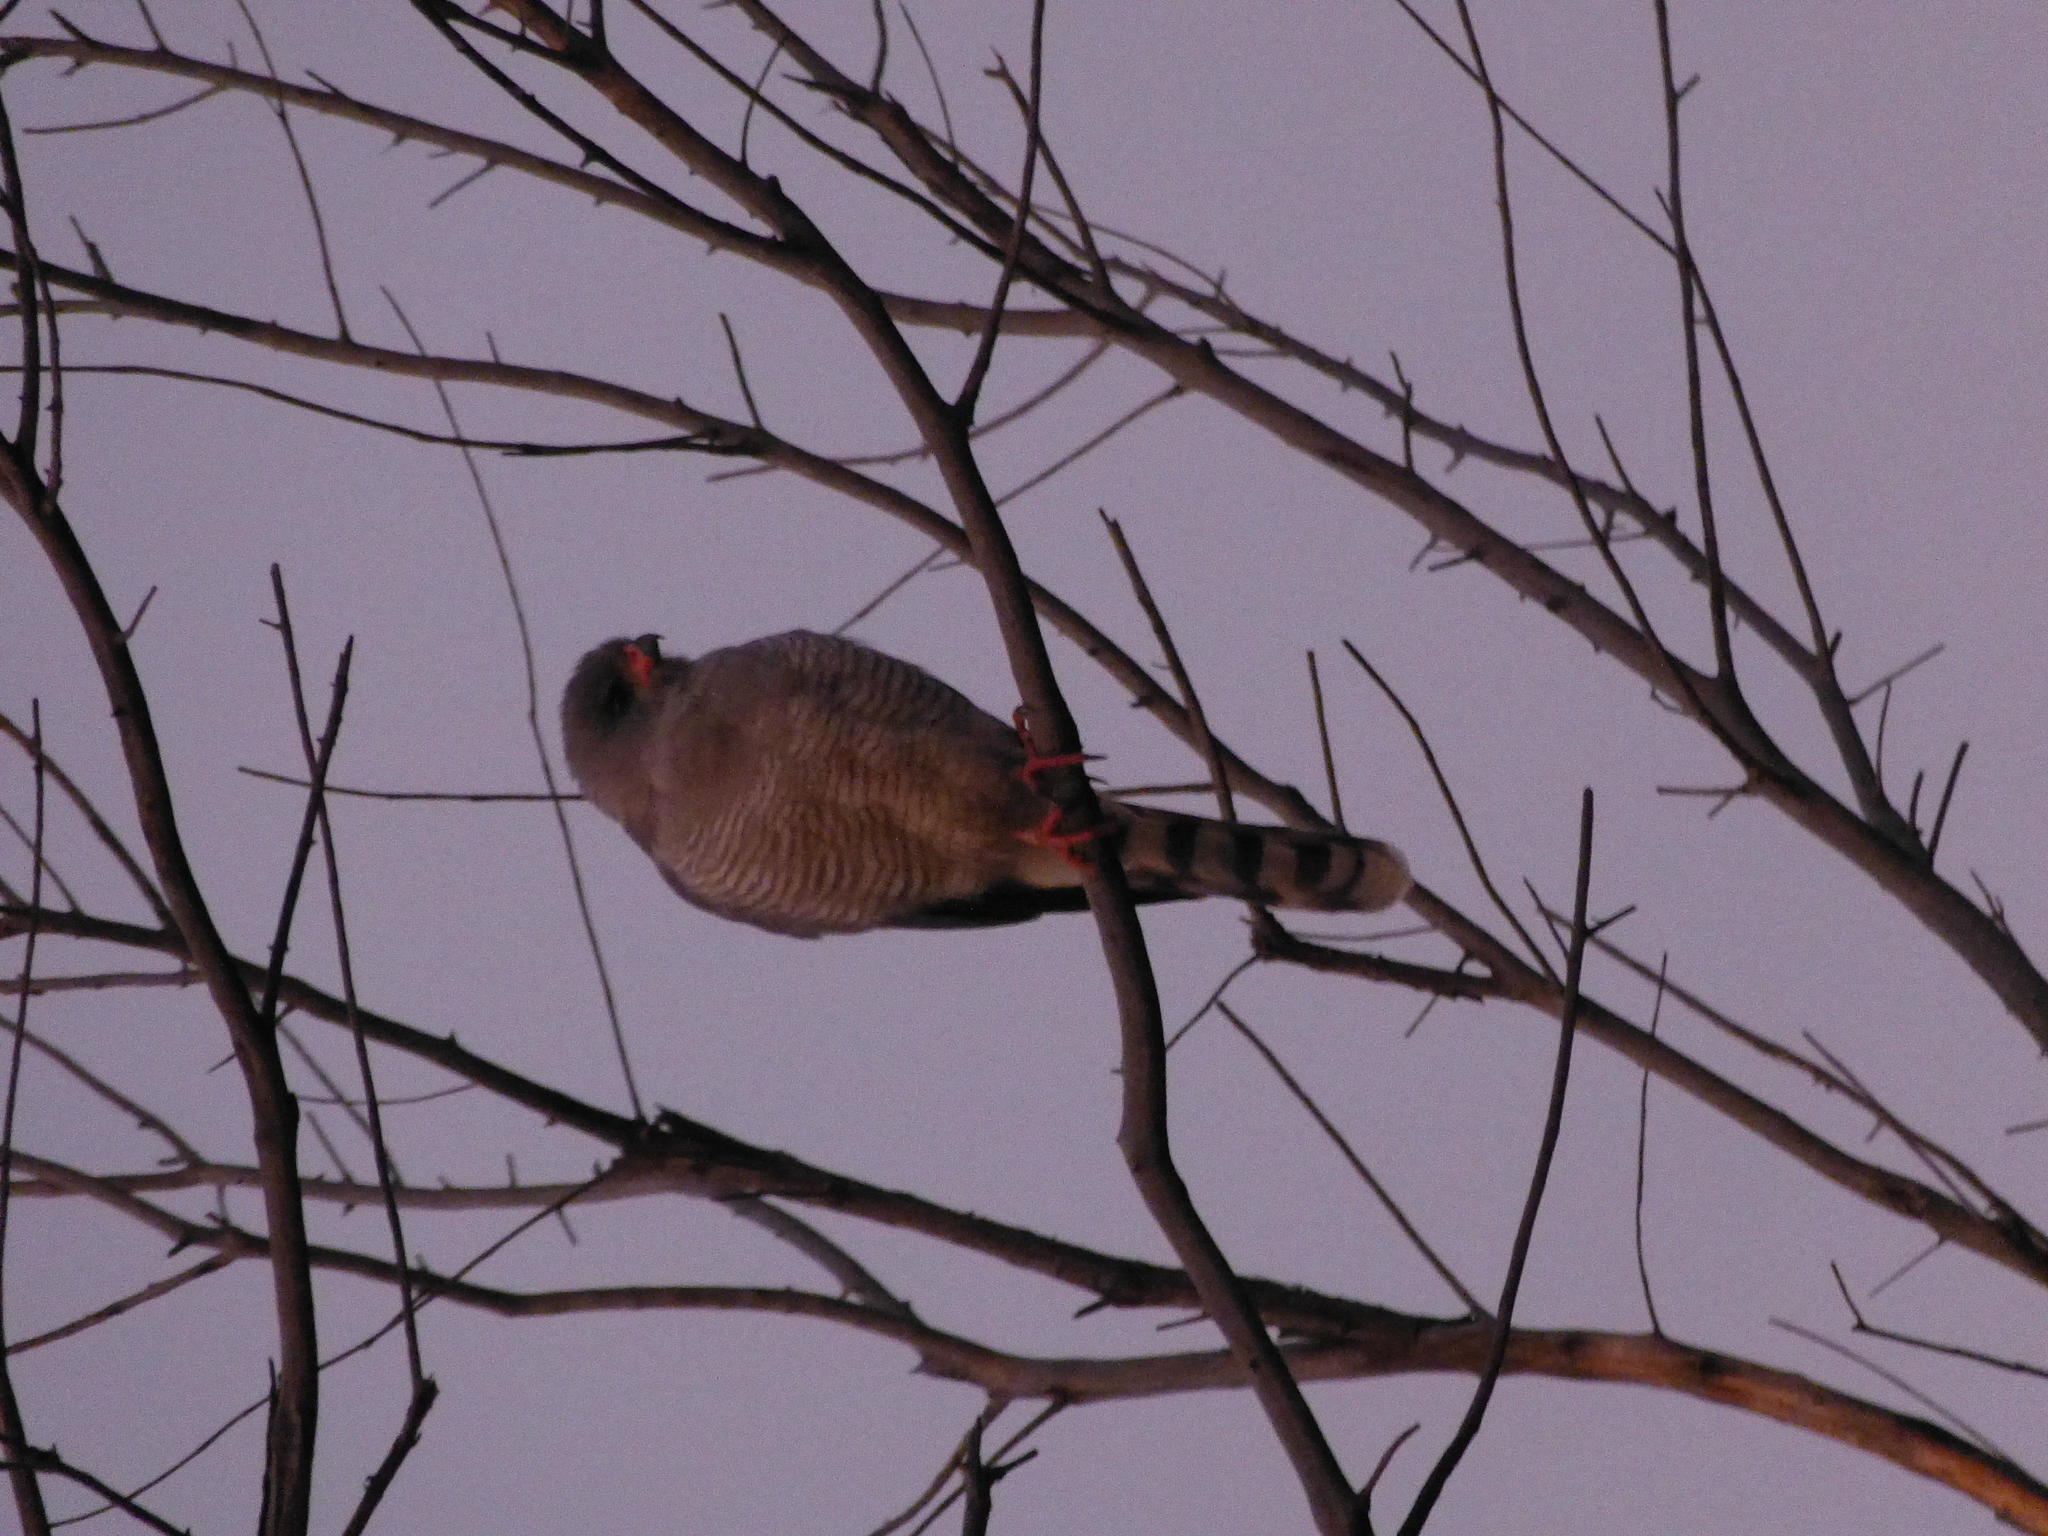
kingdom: Animalia
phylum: Chordata
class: Aves
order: Accipitriformes
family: Accipitridae
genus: Micronisus
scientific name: Micronisus gabar
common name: Gabar goshawk
